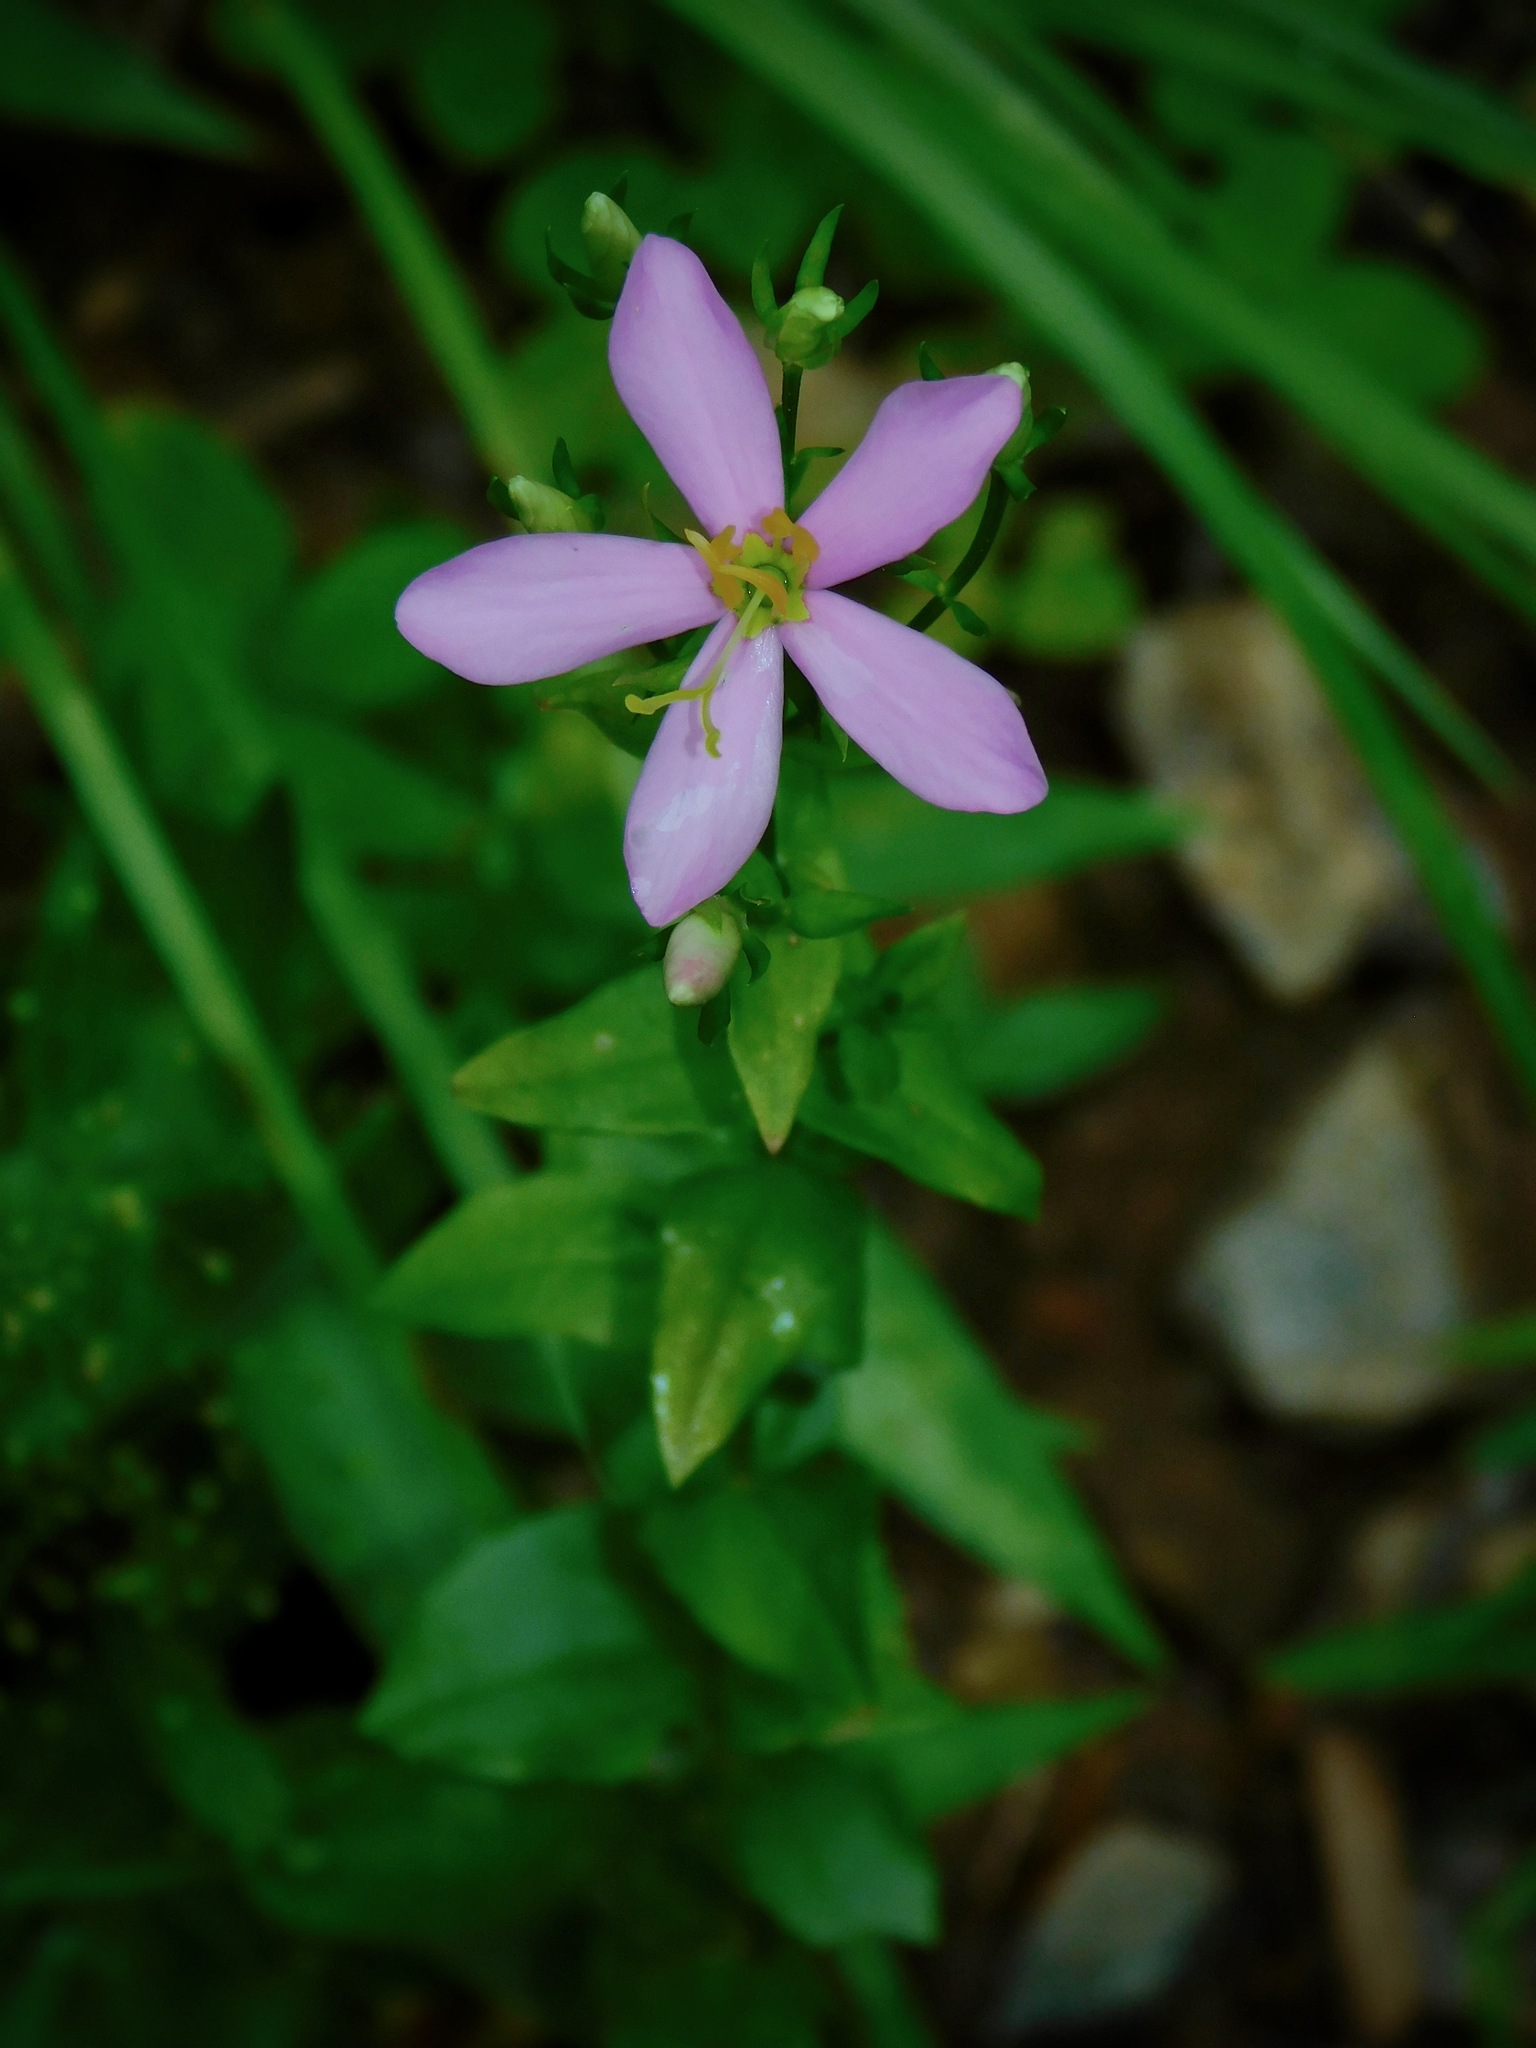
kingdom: Plantae
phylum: Tracheophyta
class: Magnoliopsida
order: Gentianales
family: Gentianaceae
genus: Sabatia
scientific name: Sabatia angularis
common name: Rose-pink
